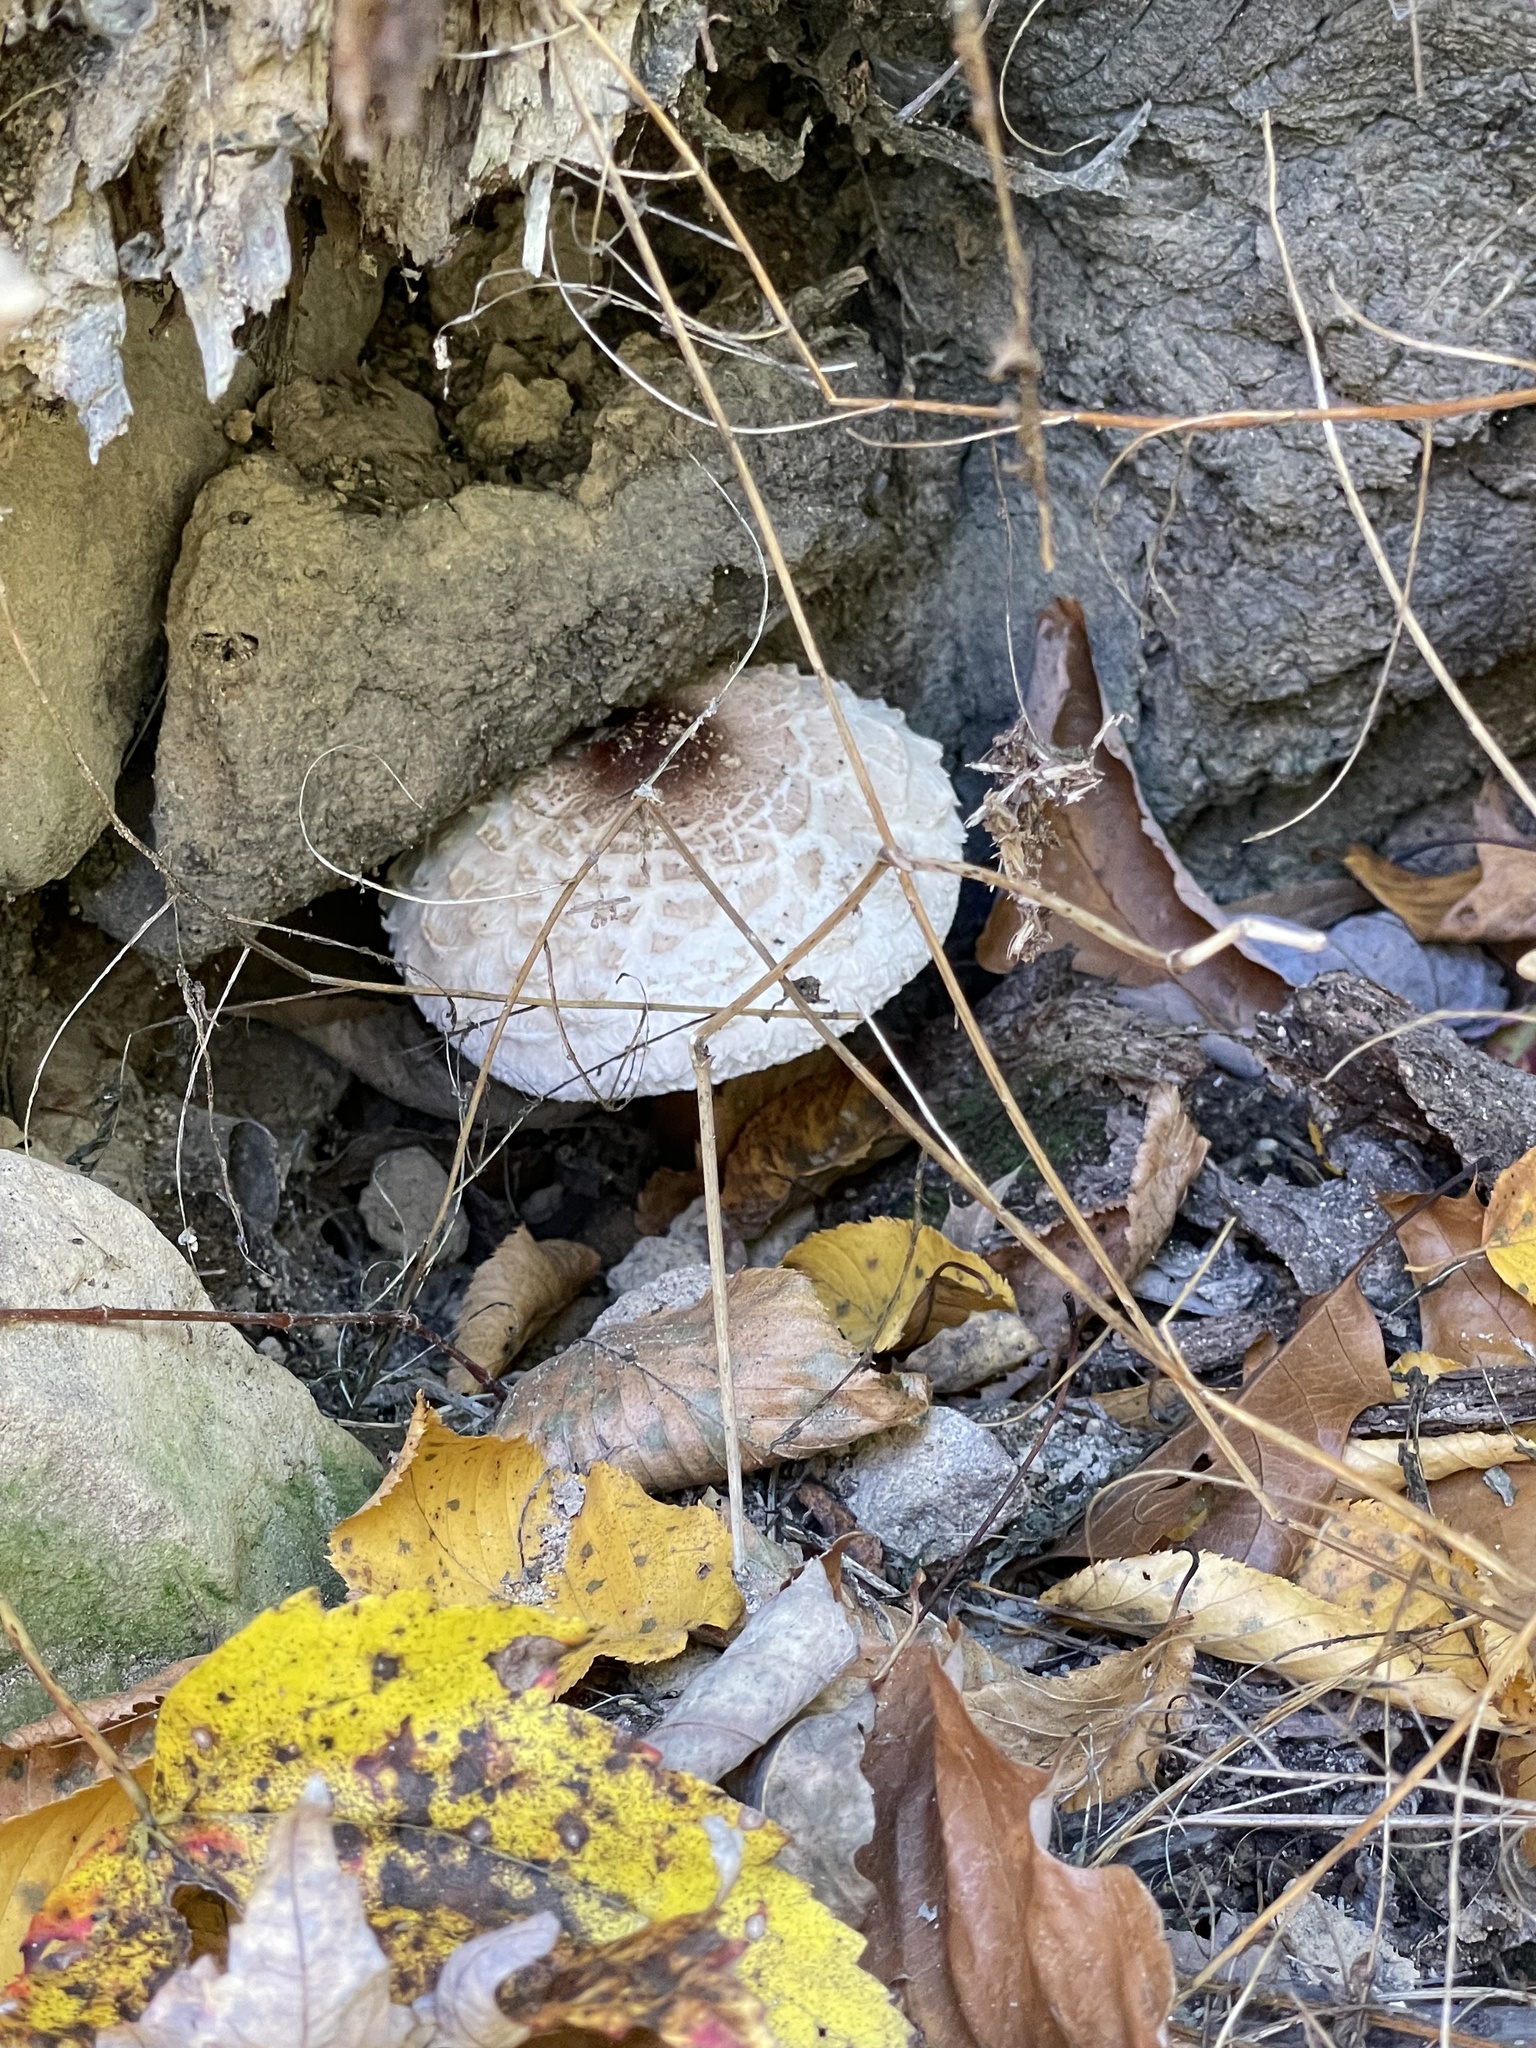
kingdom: Fungi
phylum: Basidiomycota
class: Agaricomycetes
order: Agaricales
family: Agaricaceae
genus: Chlorophyllum
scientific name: Chlorophyllum rhacodes
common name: Shaggy parasol
